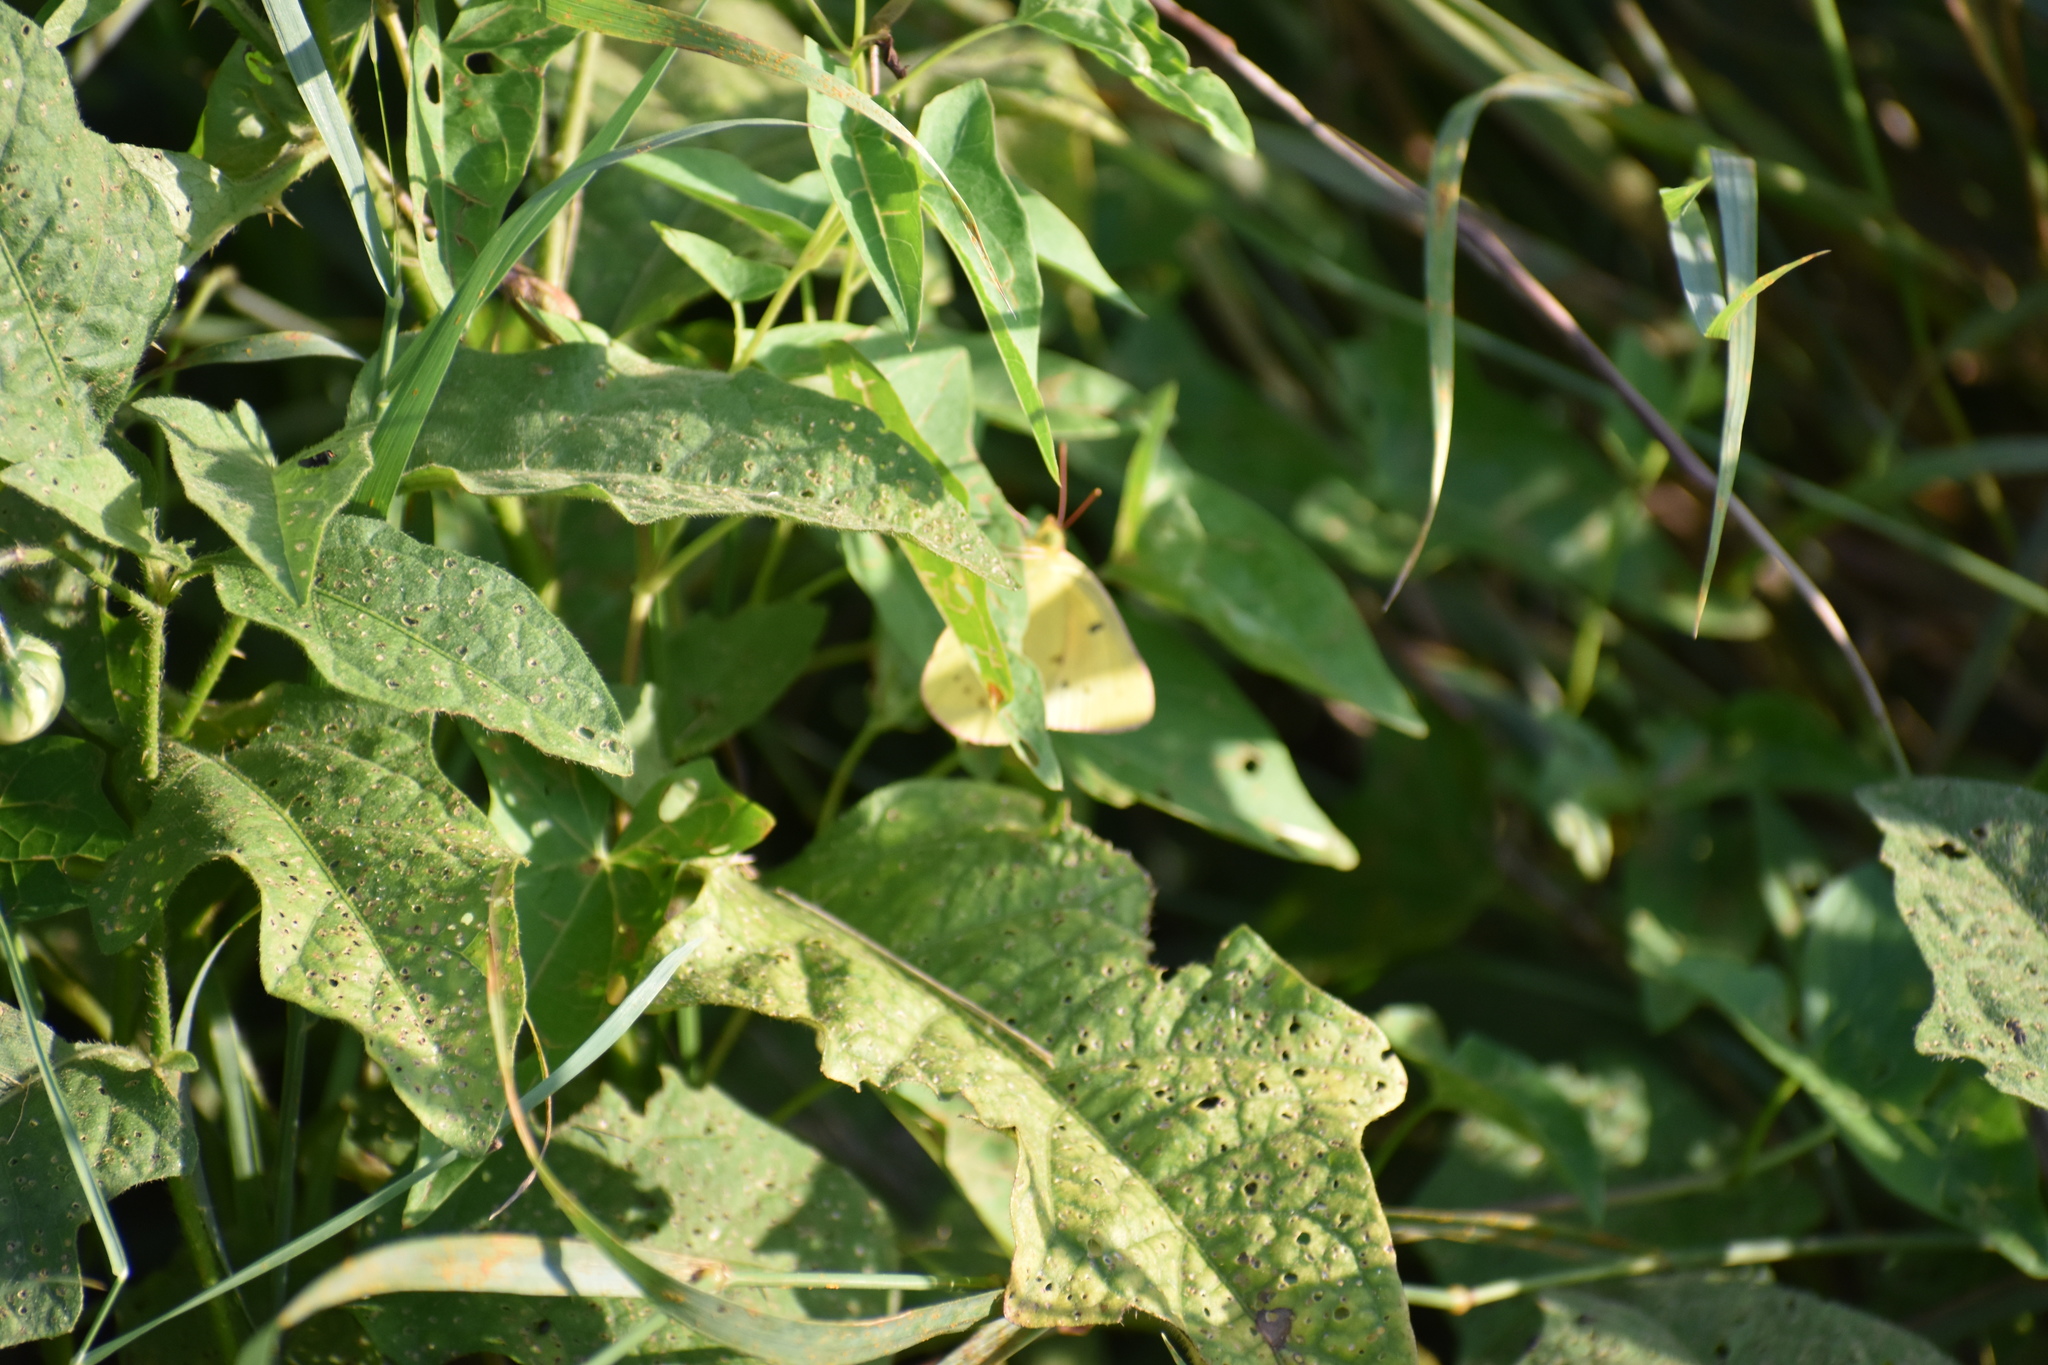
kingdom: Animalia
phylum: Arthropoda
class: Insecta
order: Lepidoptera
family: Pieridae
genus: Colias
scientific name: Colias eurytheme
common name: Alfalfa butterfly
